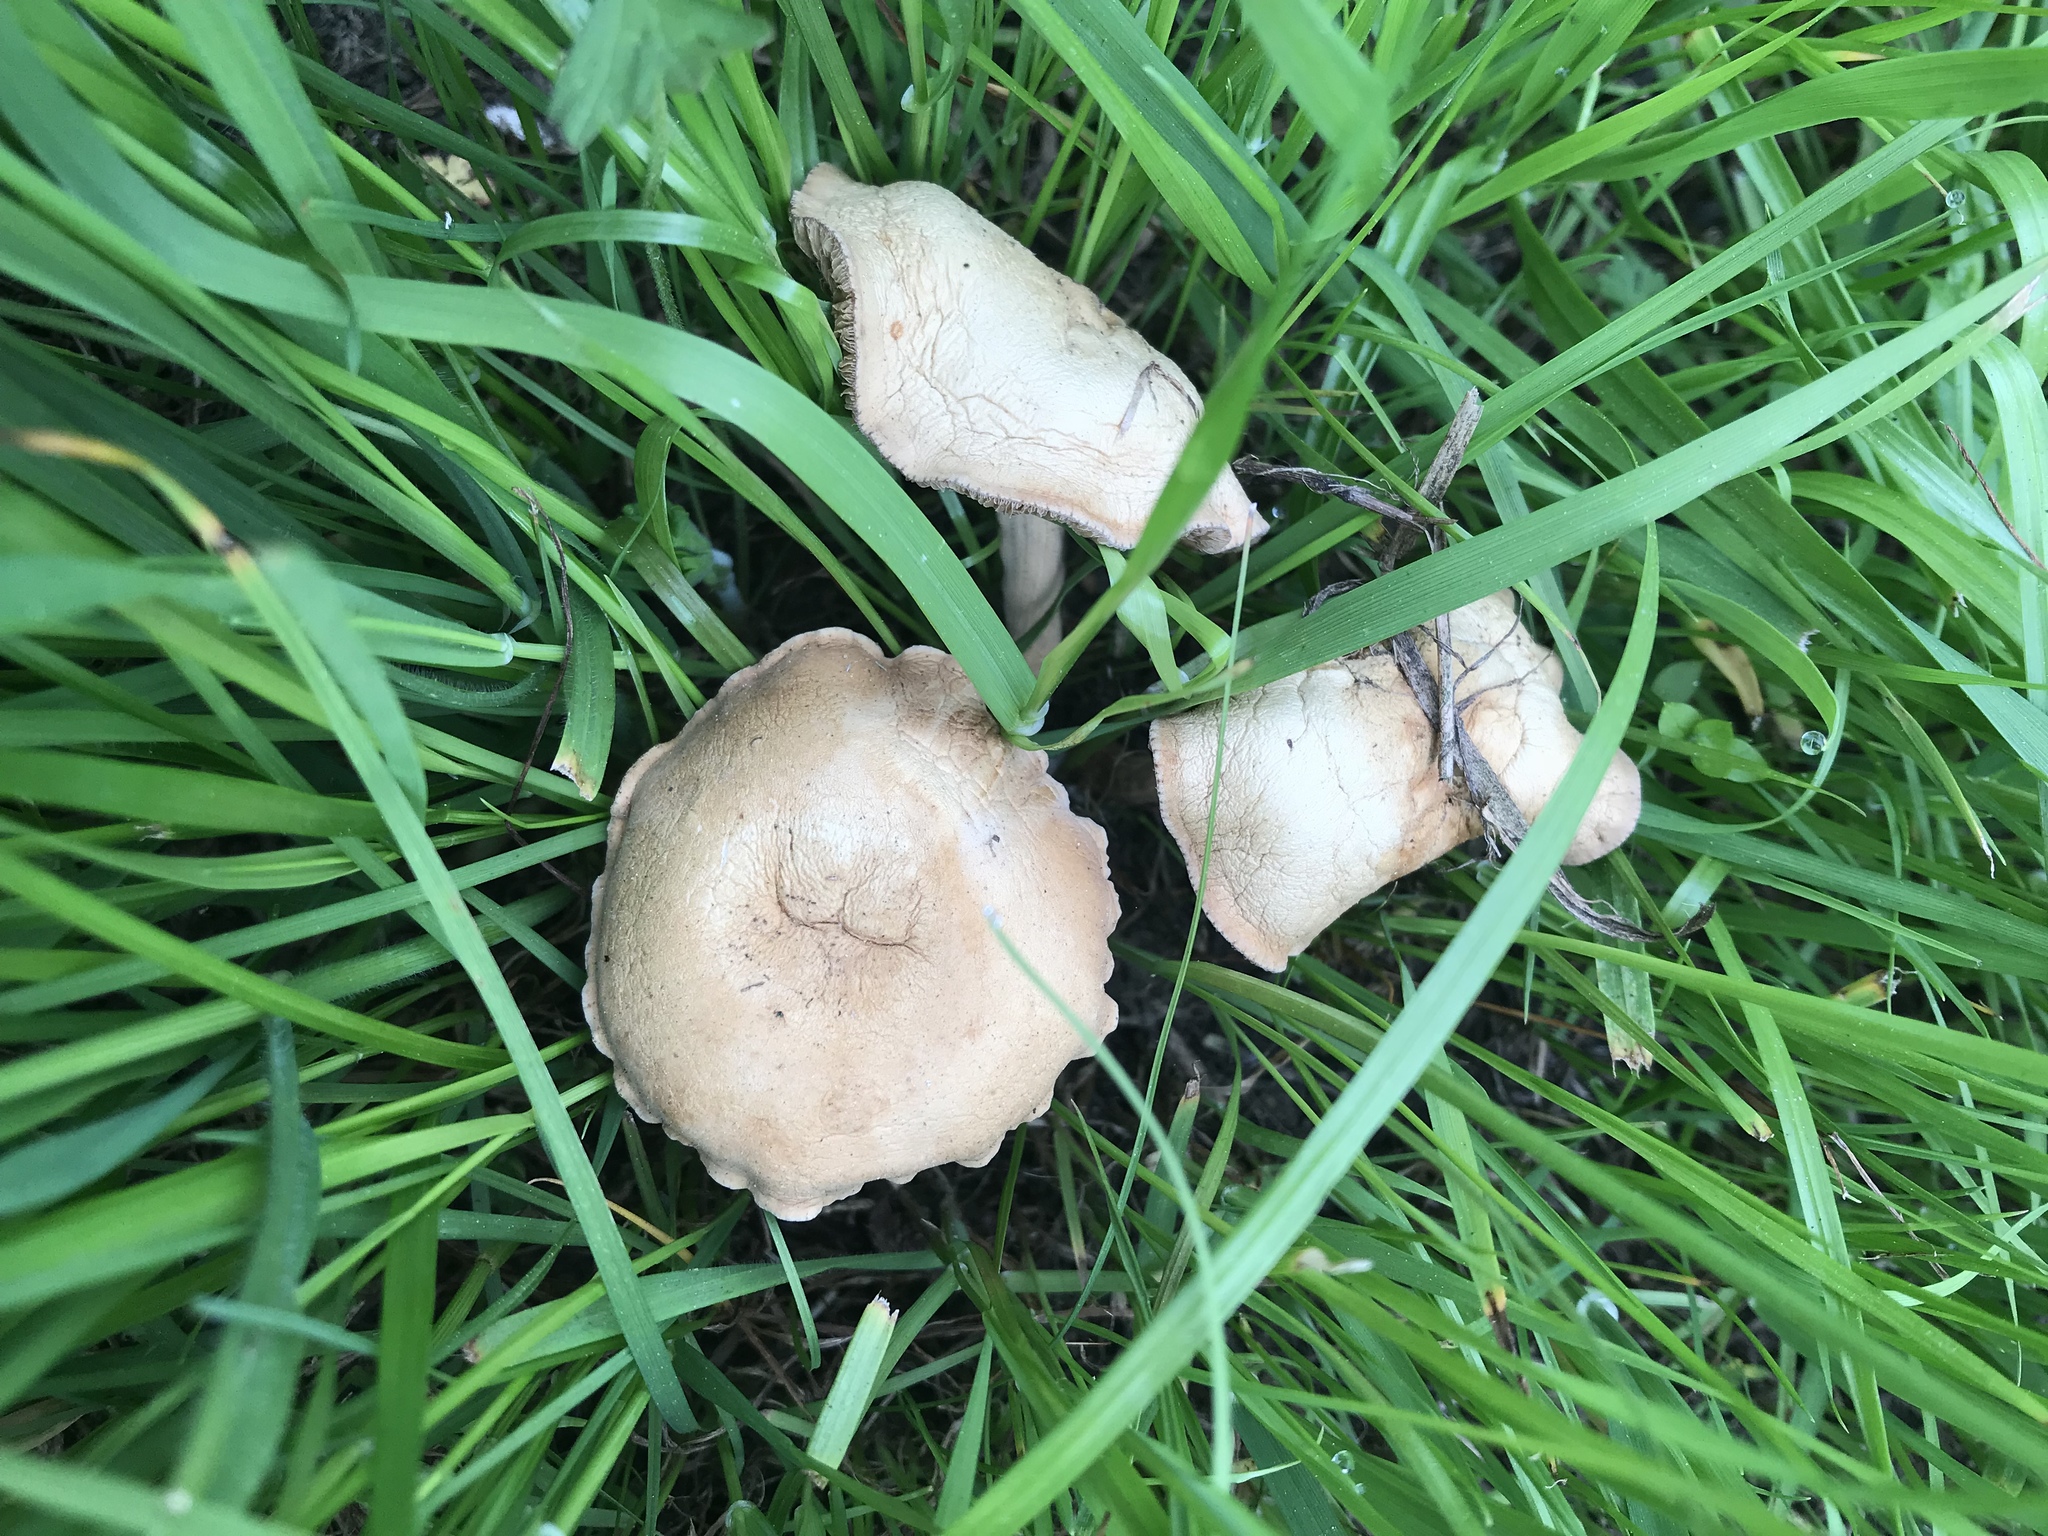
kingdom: Fungi
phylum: Basidiomycota
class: Agaricomycetes
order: Agaricales
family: Strophariaceae
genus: Agrocybe
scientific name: Agrocybe putaminum
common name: Mulch fieldcap
